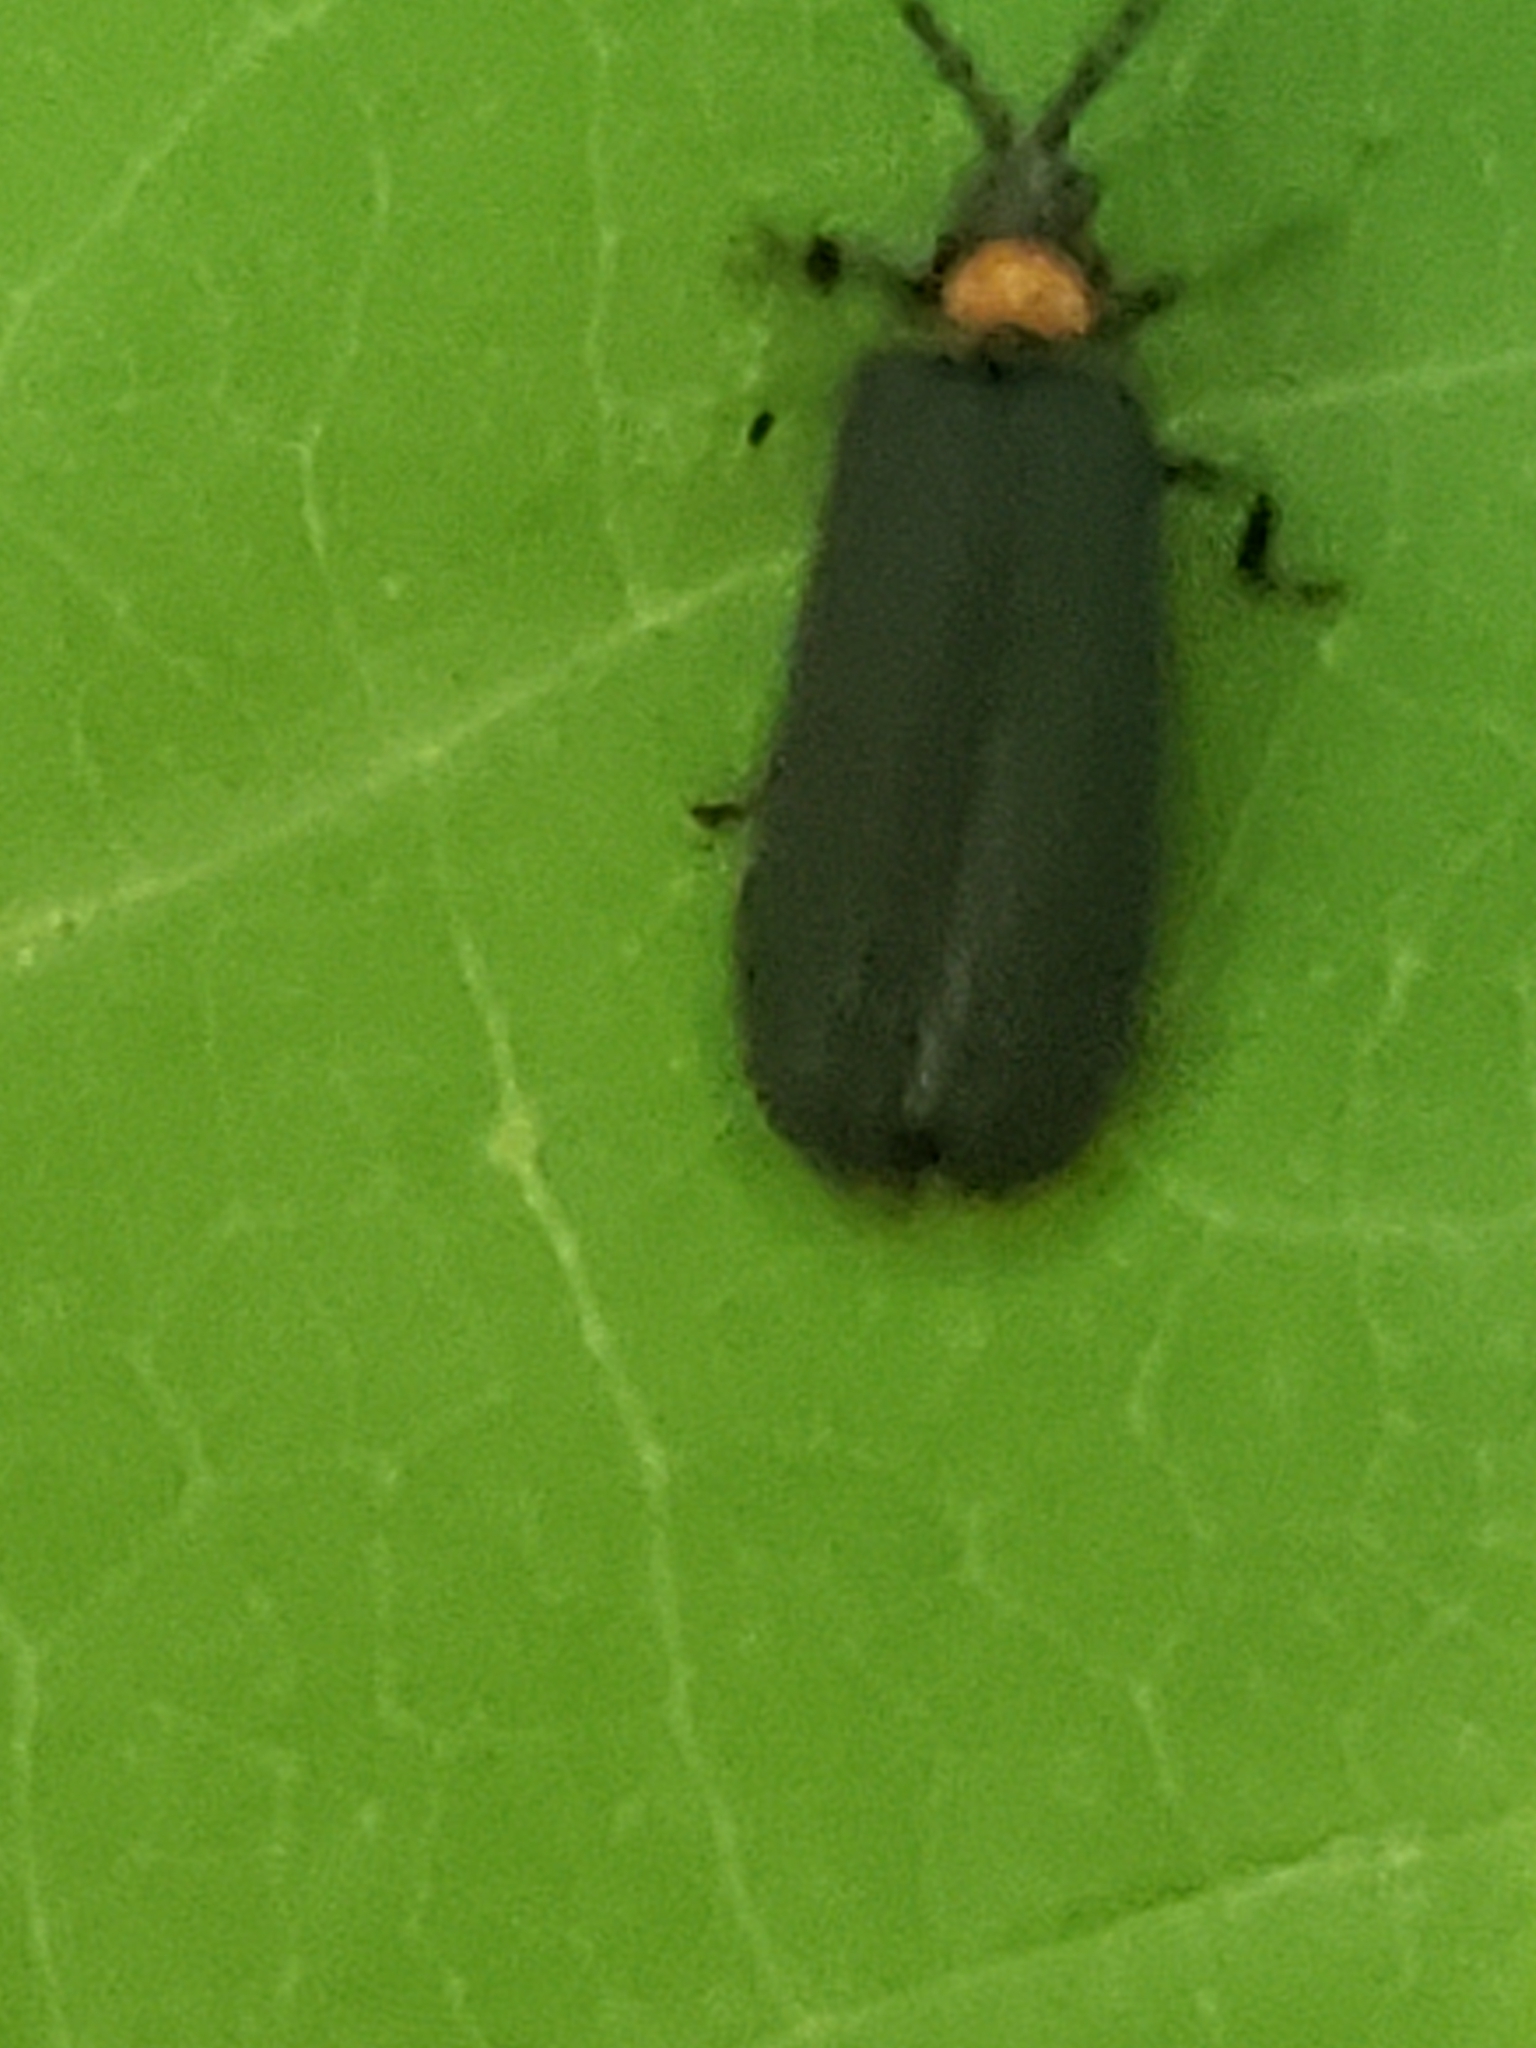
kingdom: Animalia
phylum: Arthropoda
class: Insecta
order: Coleoptera
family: Lycidae
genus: Lopheros
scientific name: Lopheros fraternus
